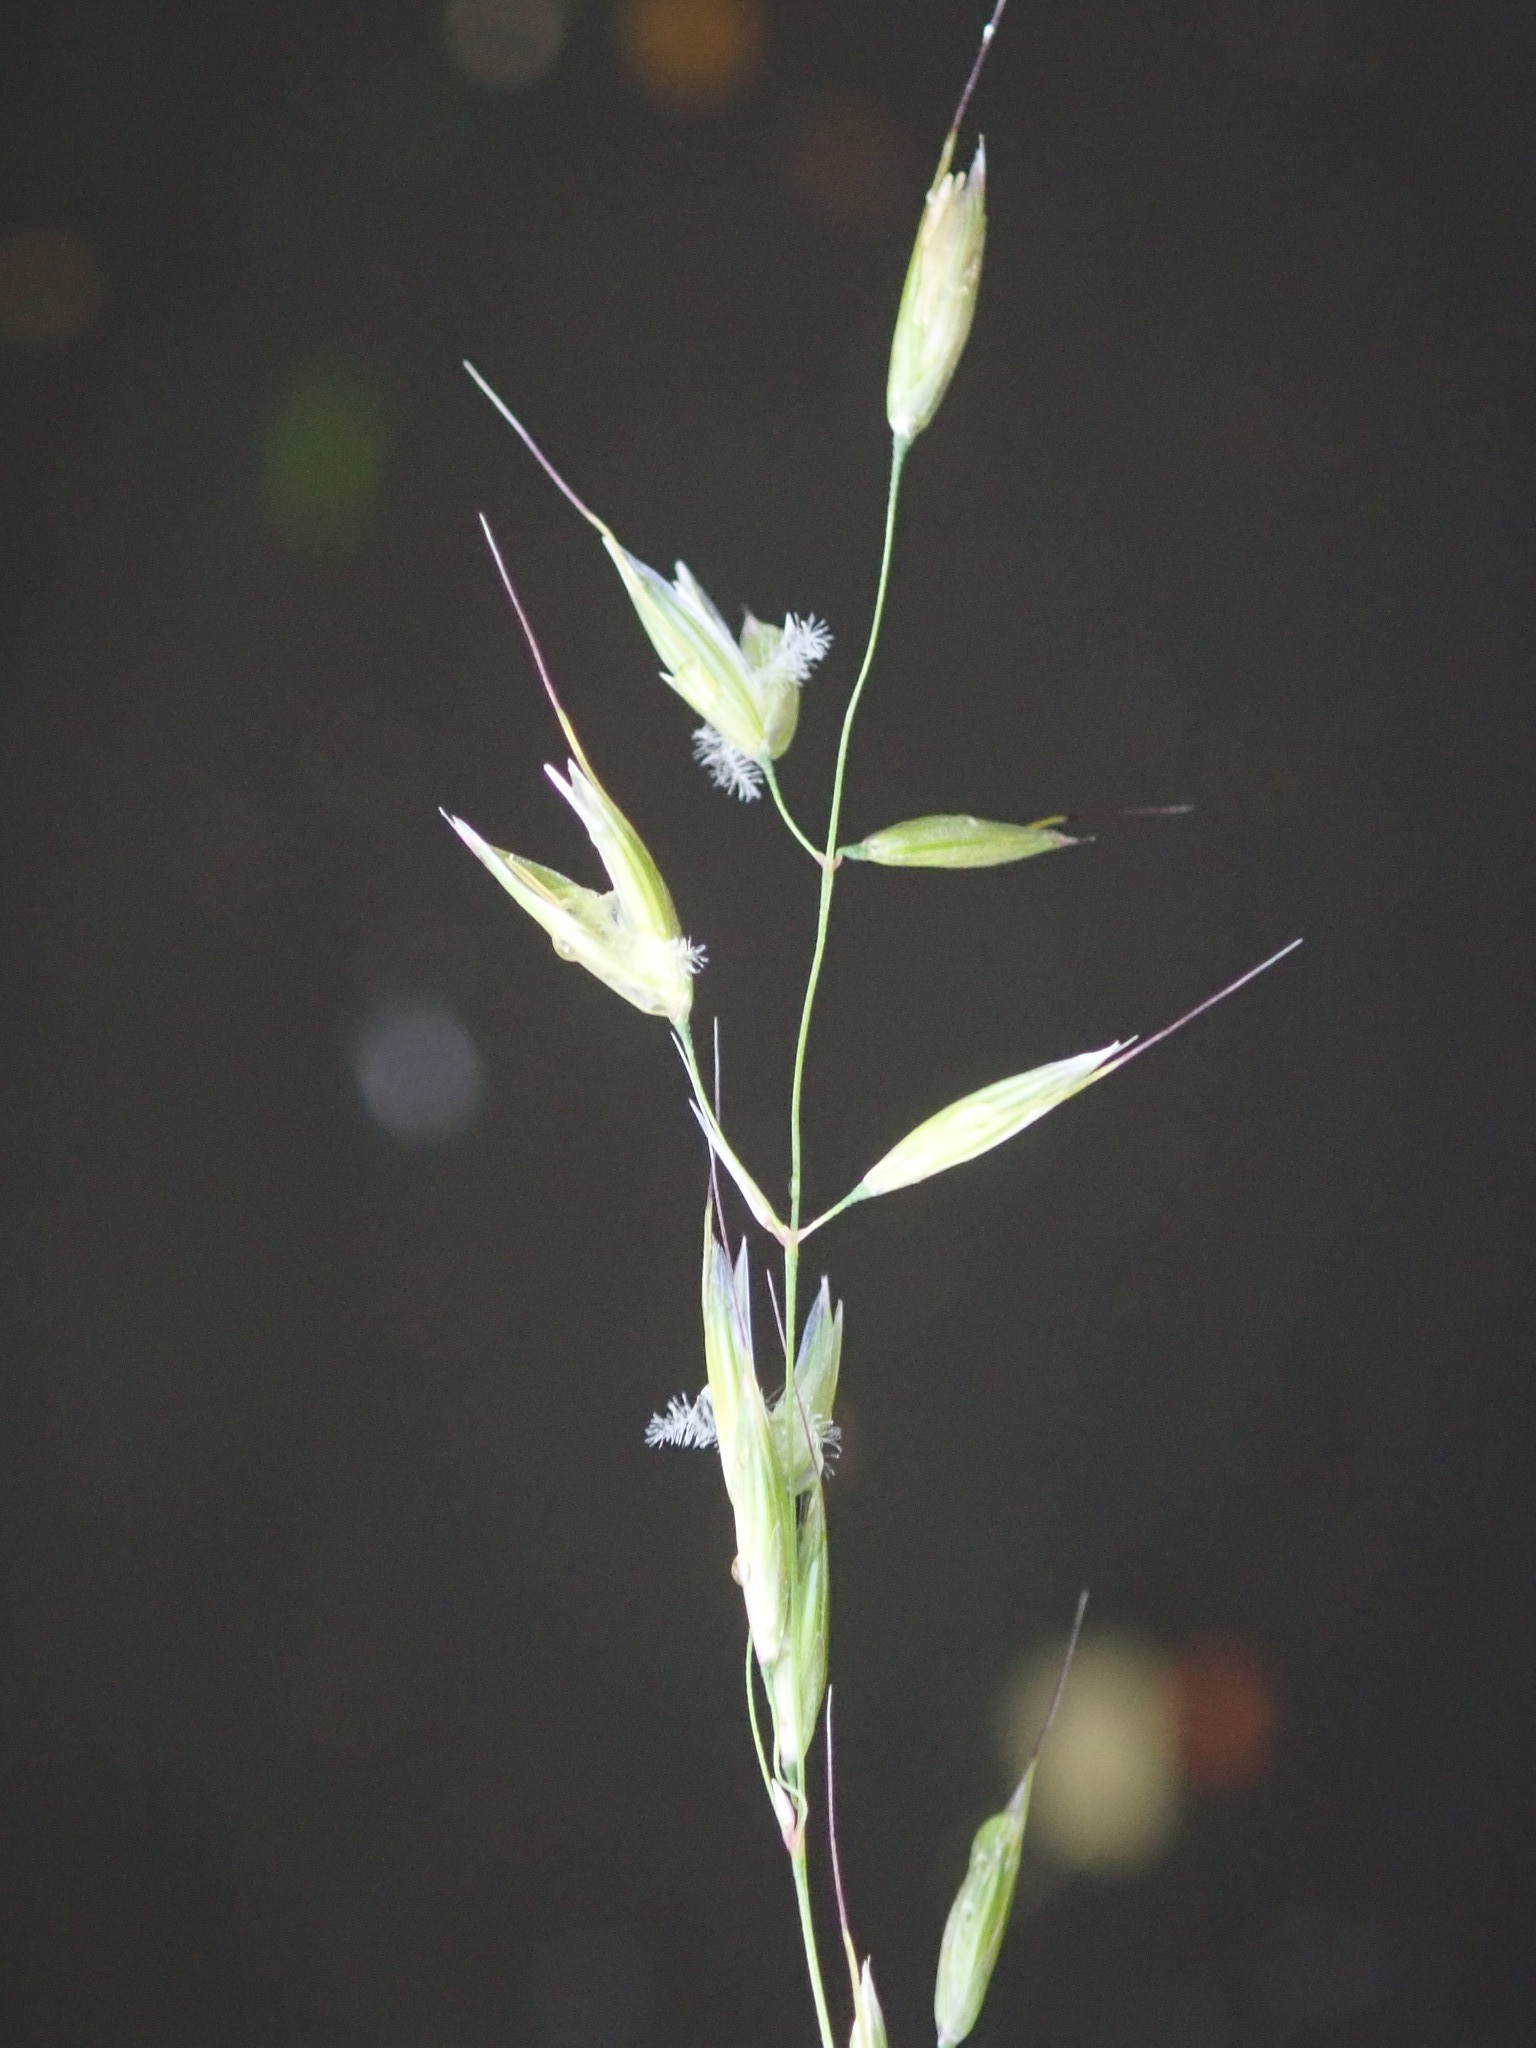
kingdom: Plantae
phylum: Tracheophyta
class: Liliopsida
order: Poales
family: Poaceae
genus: Arrhenatherum
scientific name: Arrhenatherum elatius
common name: Tall oatgrass
